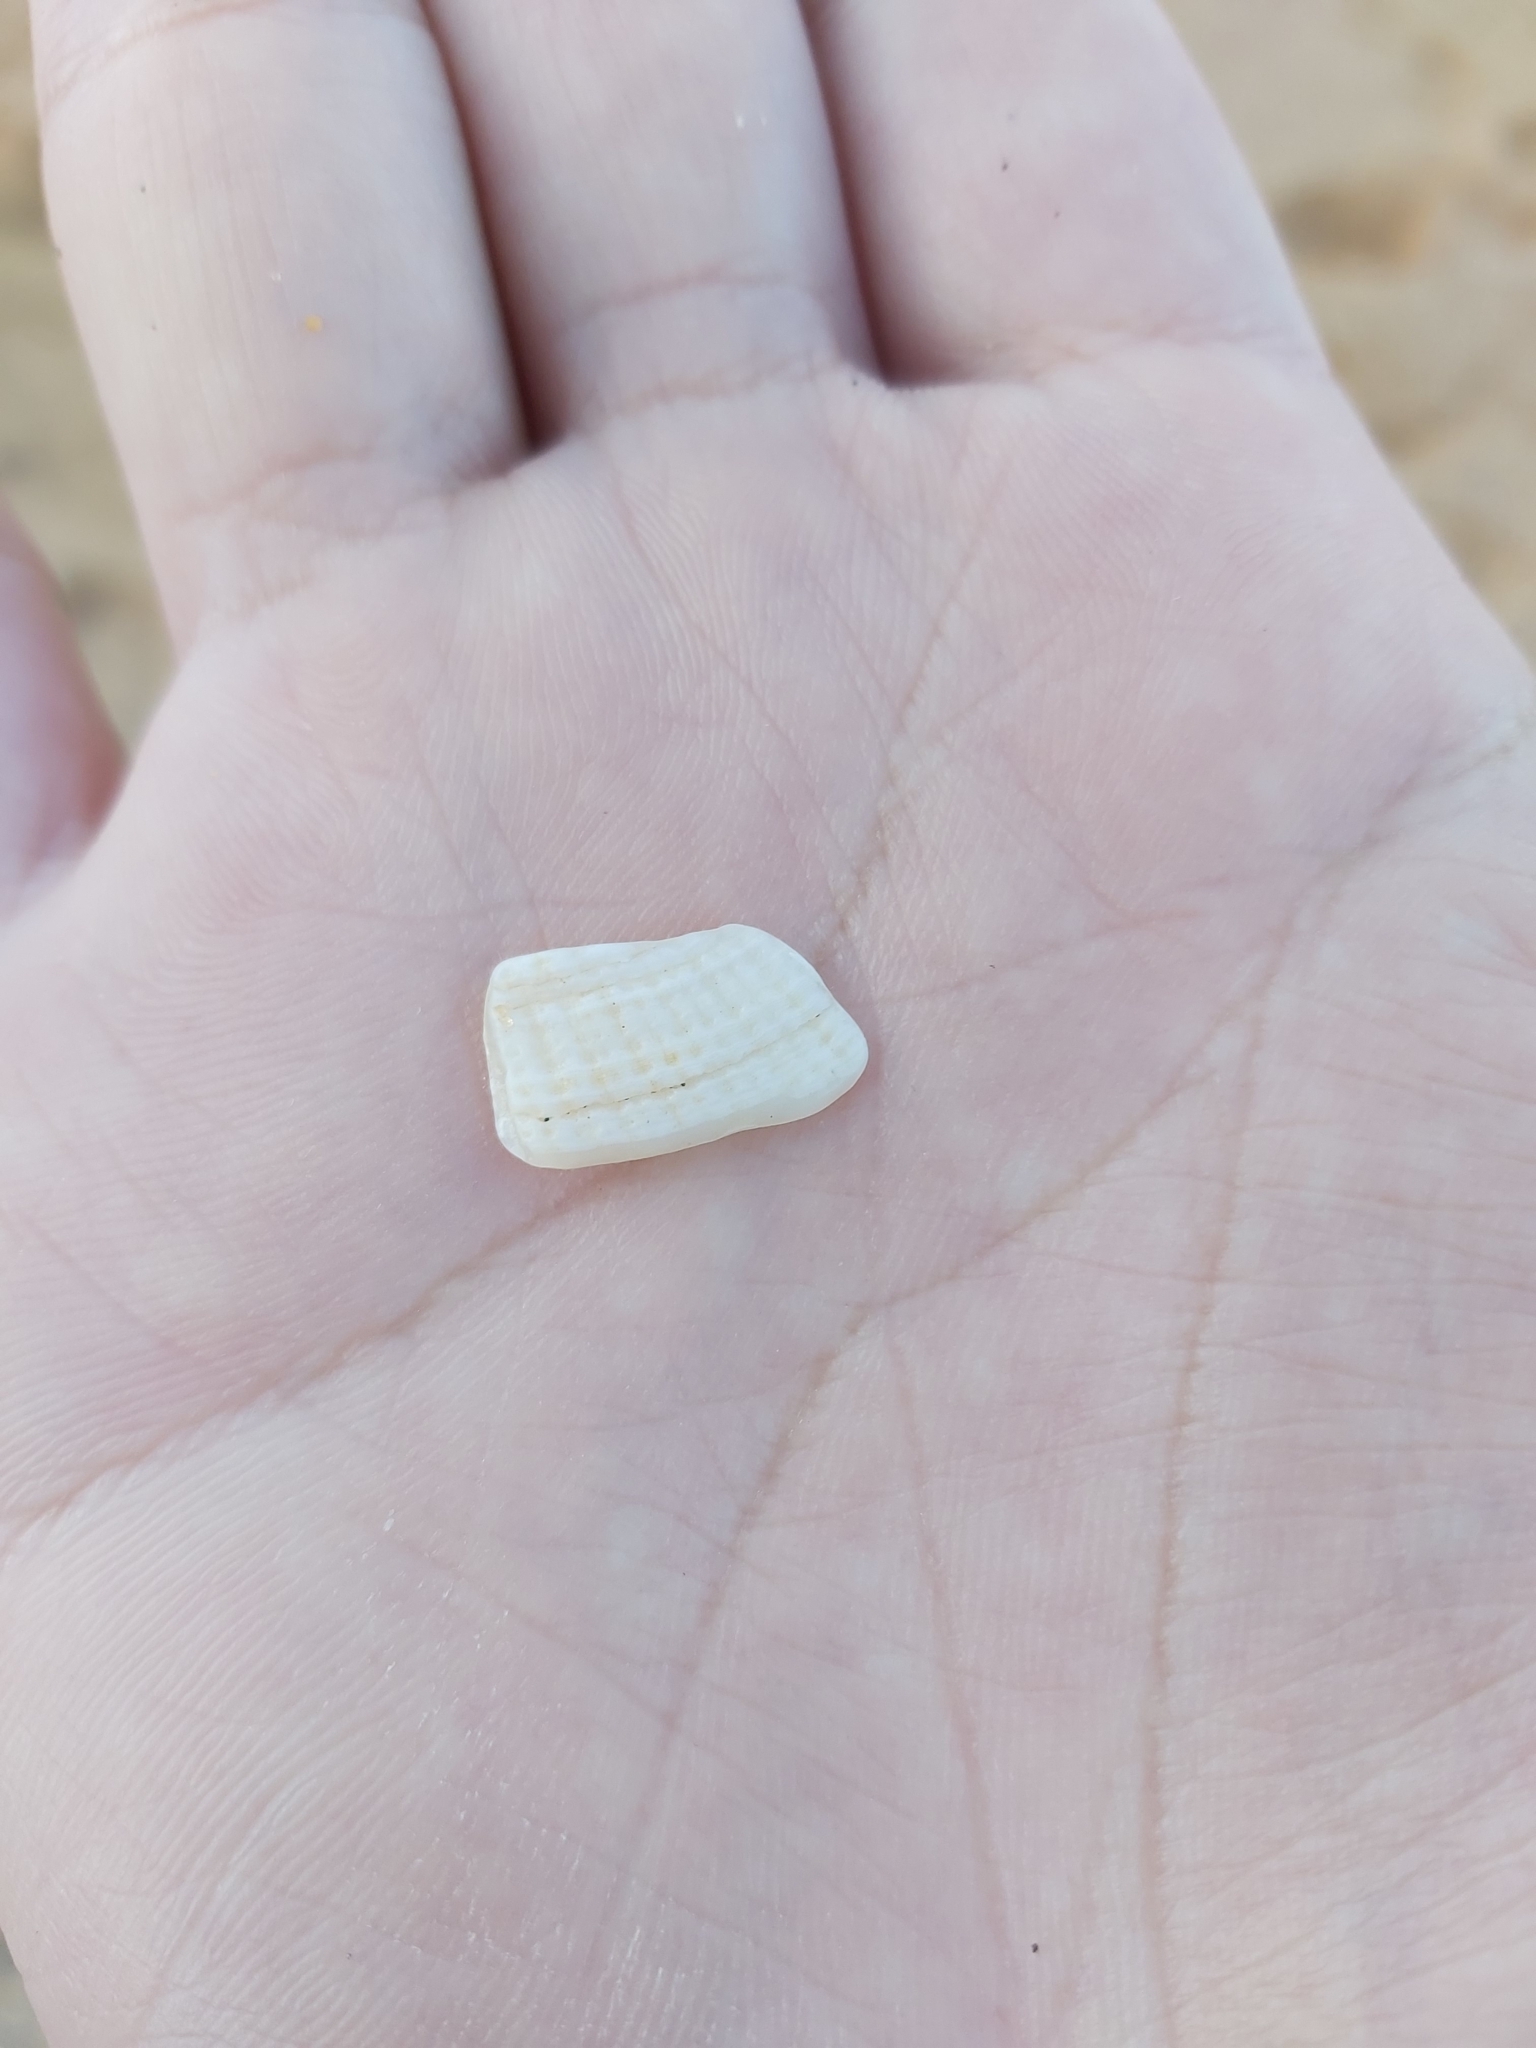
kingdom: Animalia
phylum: Mollusca
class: Bivalvia
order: Lucinida
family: Lucinidae
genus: Codakia
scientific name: Codakia rugifera
